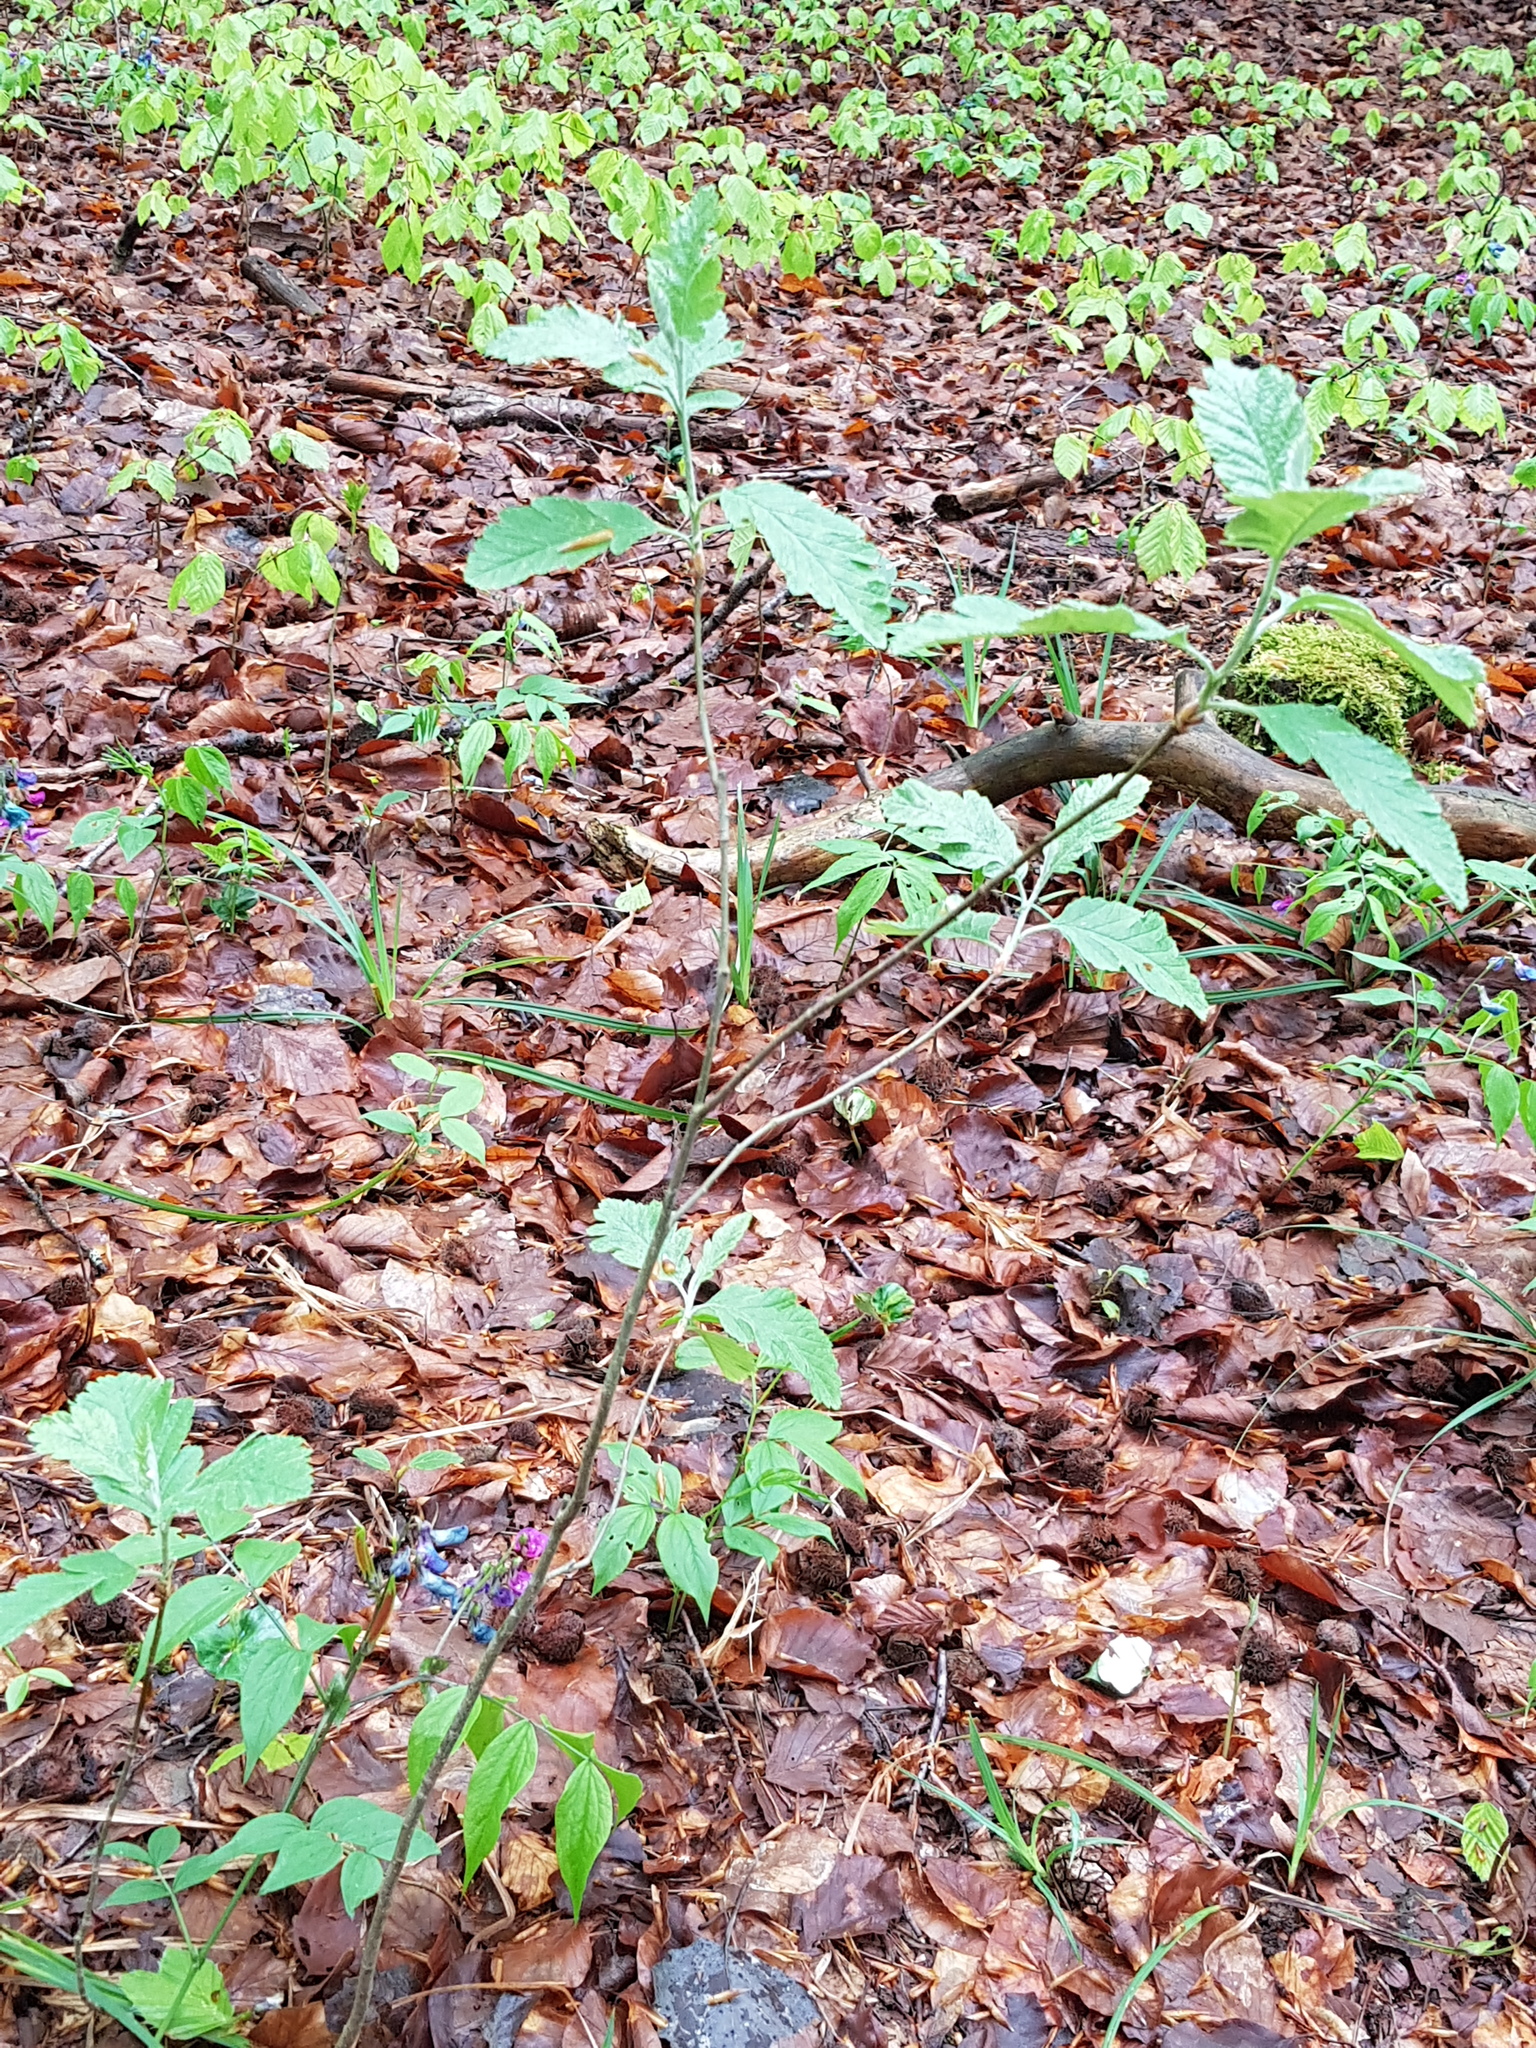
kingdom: Plantae
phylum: Tracheophyta
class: Magnoliopsida
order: Rosales
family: Rosaceae
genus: Hedlundia
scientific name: Hedlundia pseudothuringiaca
